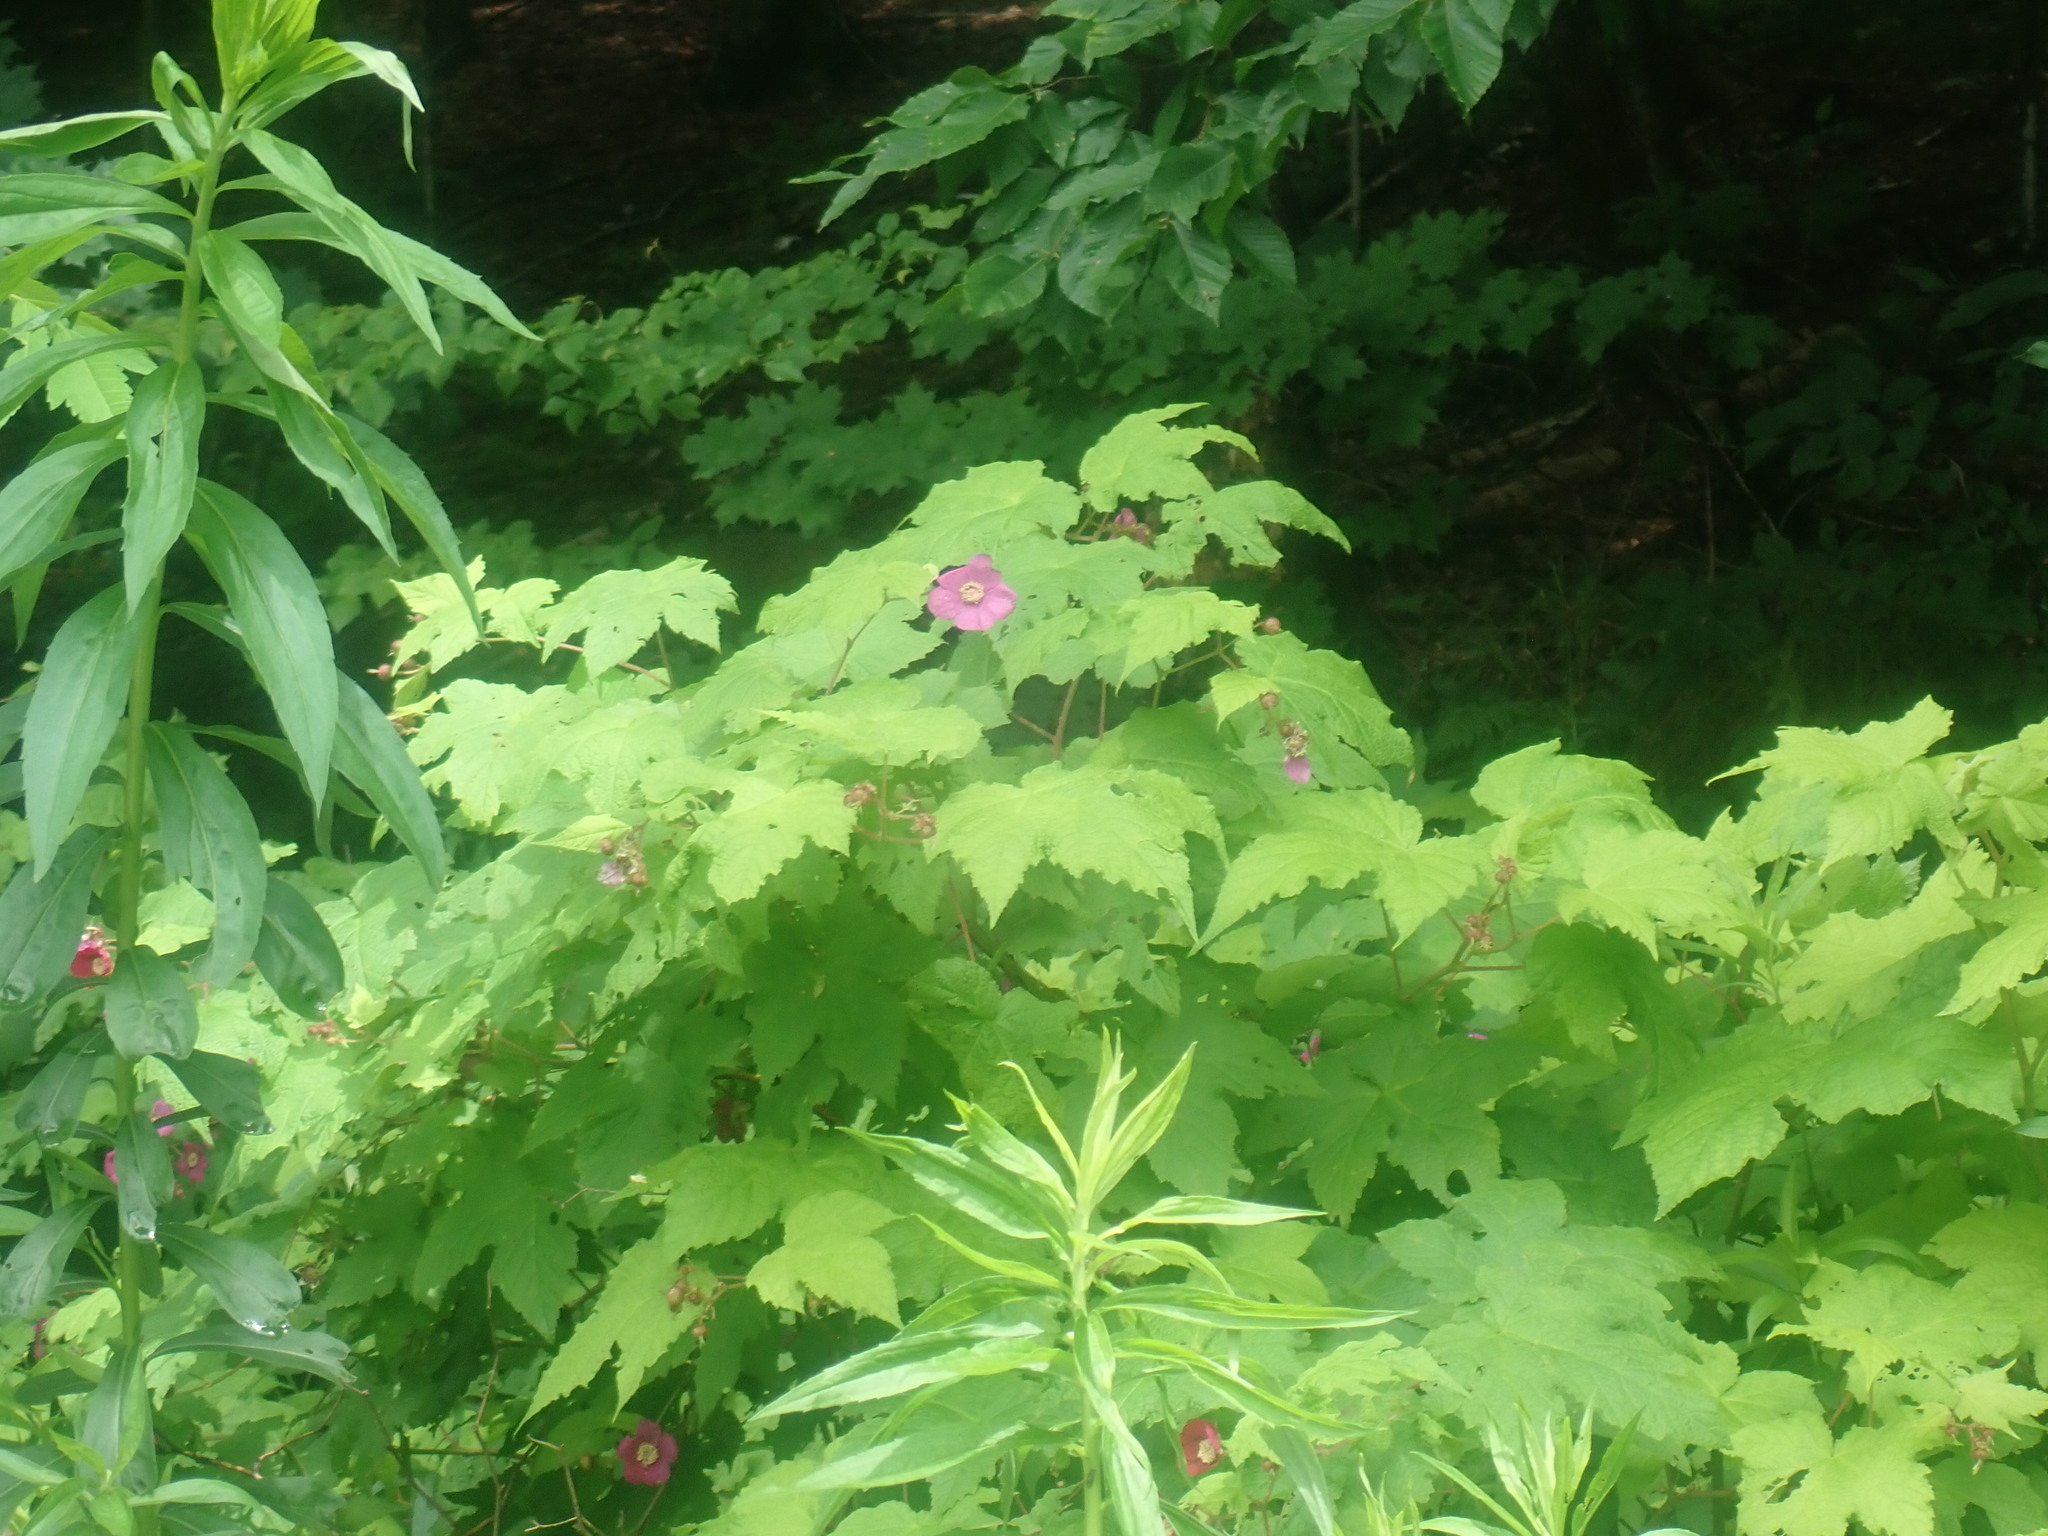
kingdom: Plantae
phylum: Tracheophyta
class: Magnoliopsida
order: Rosales
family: Rosaceae
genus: Rubus
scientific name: Rubus odoratus
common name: Purple-flowered raspberry
